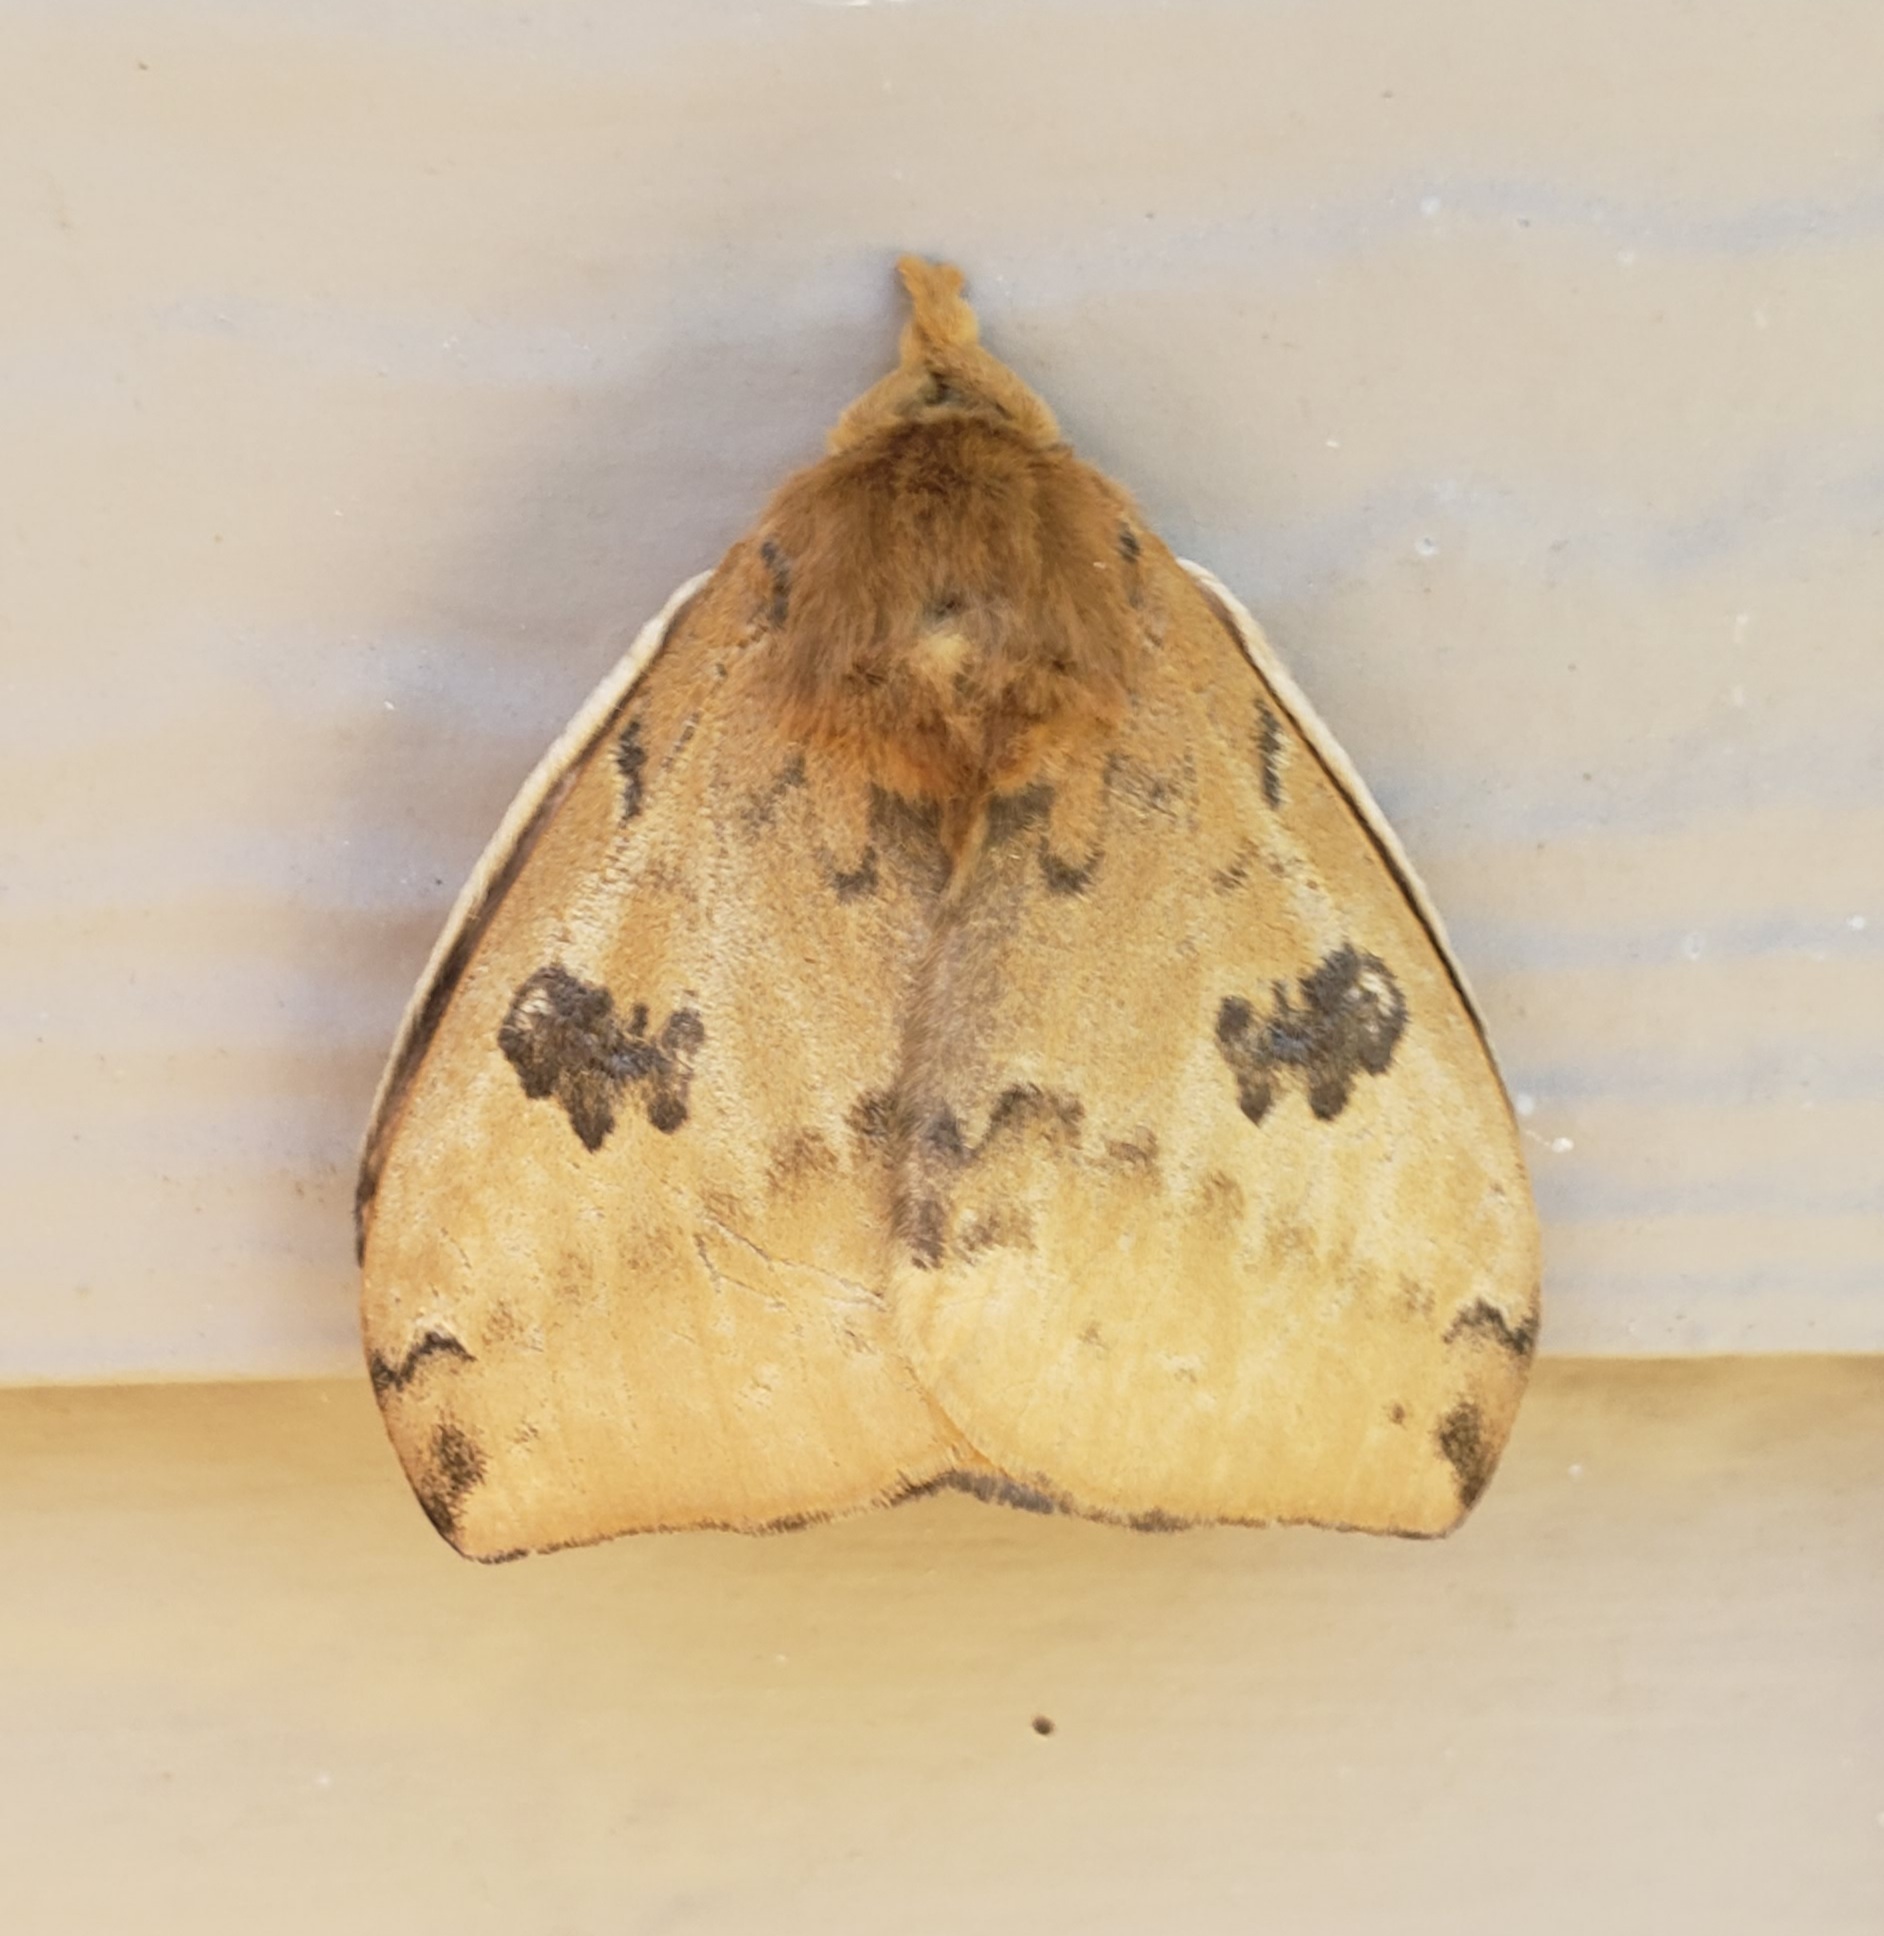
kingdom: Animalia
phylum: Arthropoda
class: Insecta
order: Lepidoptera
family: Saturniidae
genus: Automeris
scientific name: Automeris io
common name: Io moth
